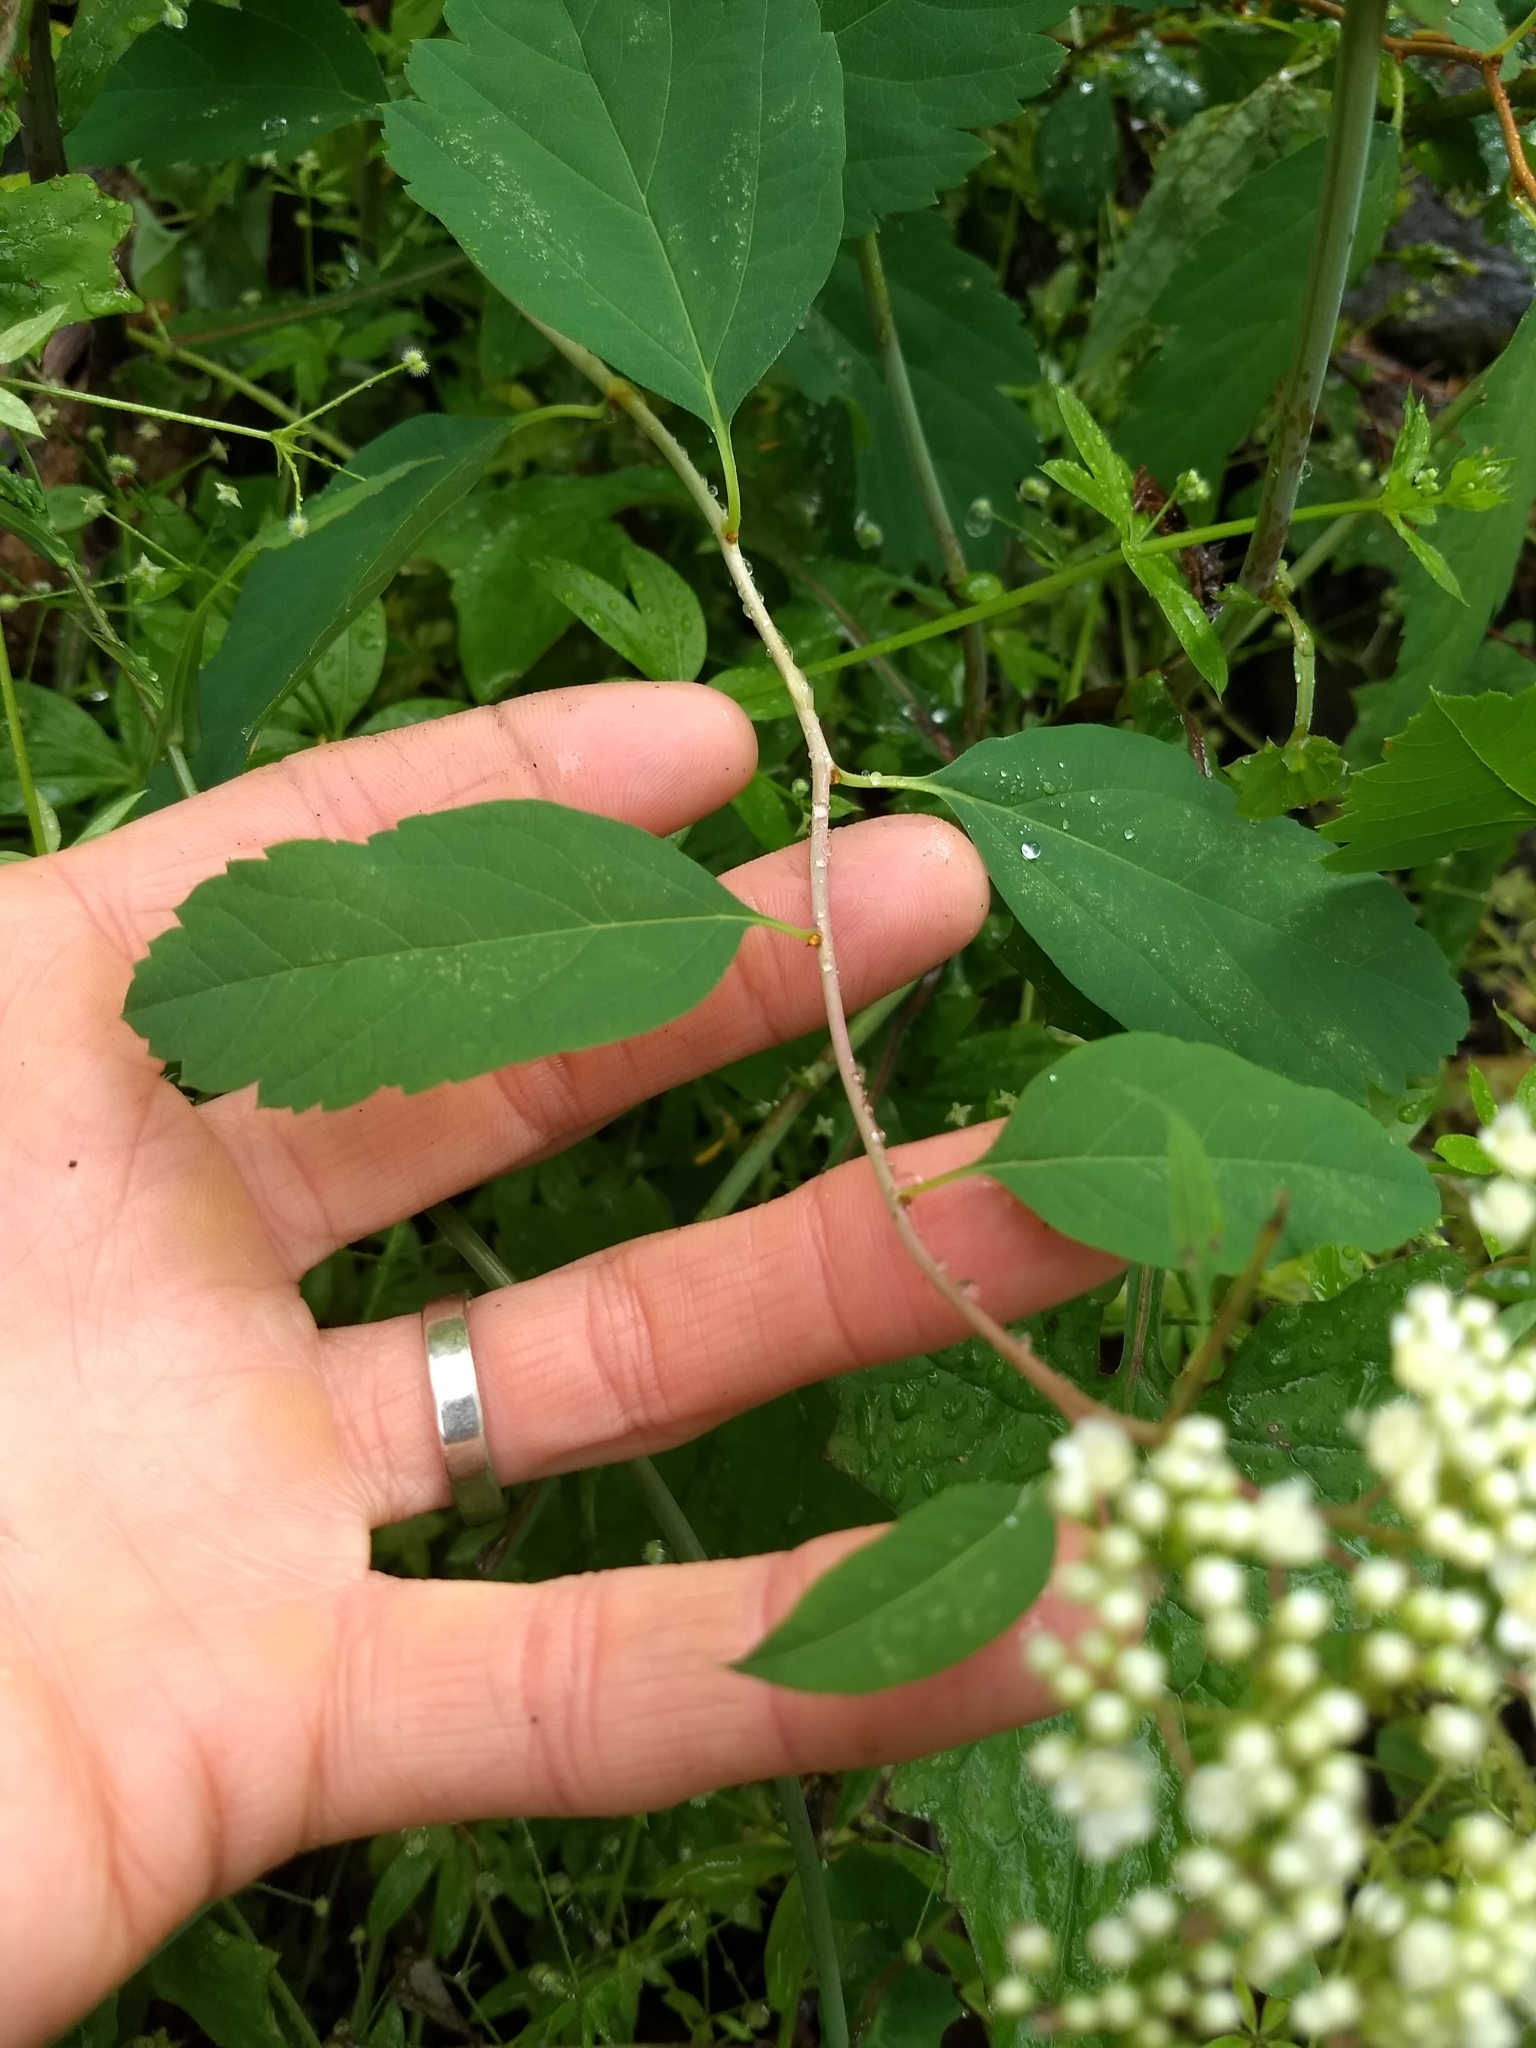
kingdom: Plantae
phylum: Tracheophyta
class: Magnoliopsida
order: Rosales
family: Rosaceae
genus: Spiraea
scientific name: Spiraea lucida
